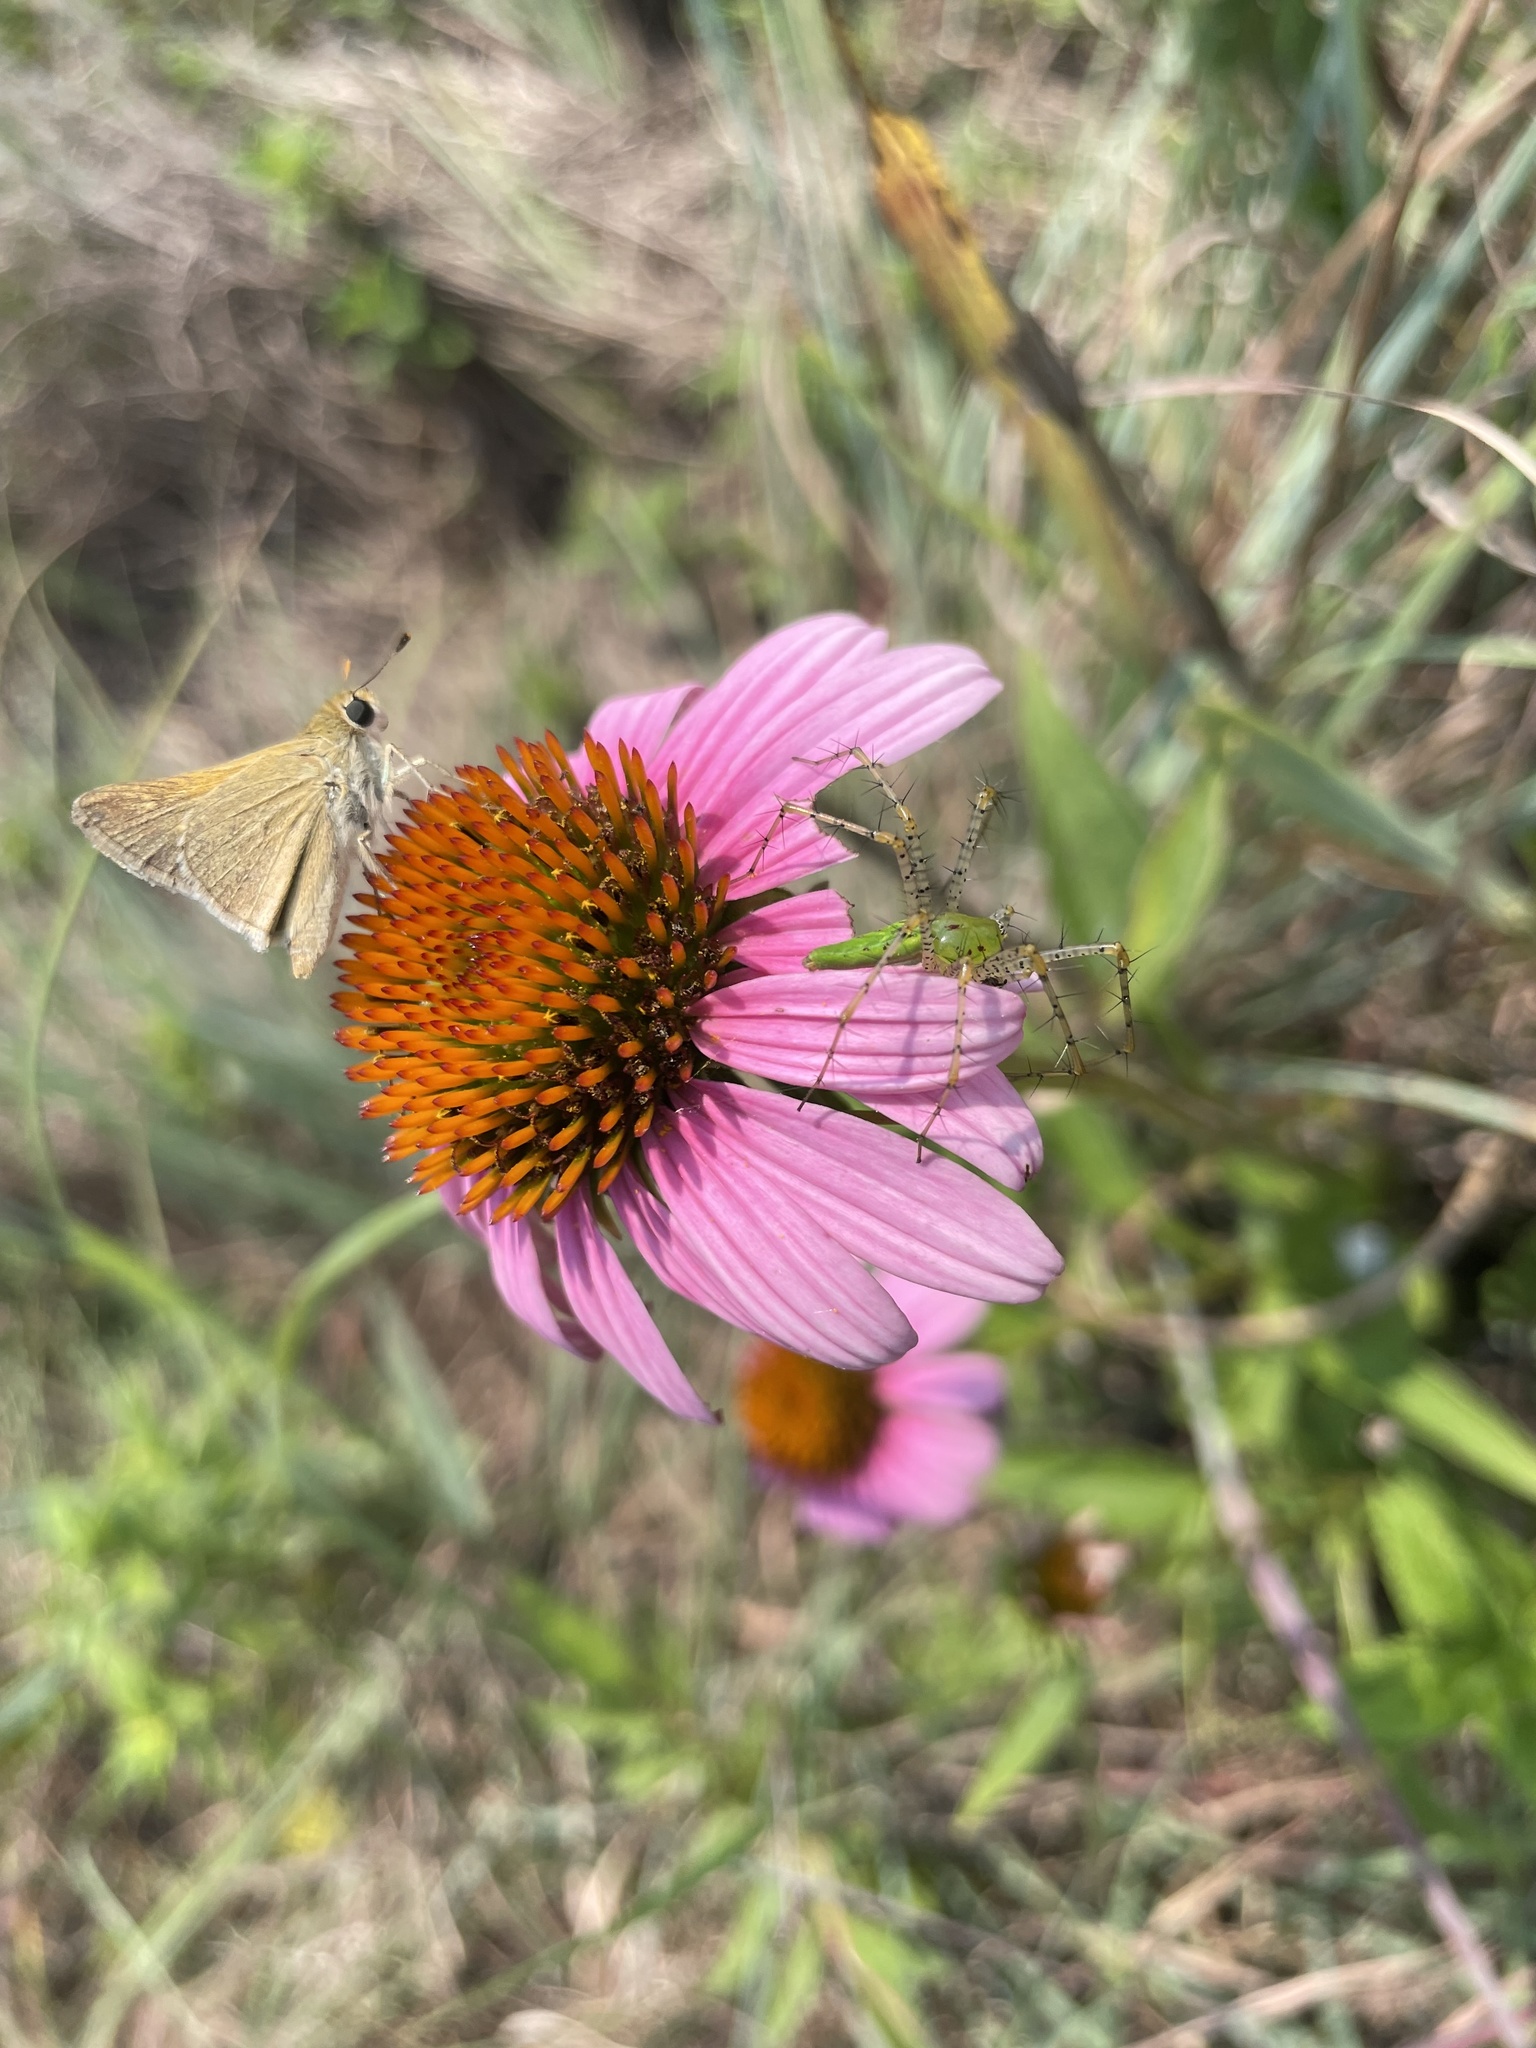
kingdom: Animalia
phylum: Arthropoda
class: Insecta
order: Lepidoptera
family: Hesperiidae
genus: Polites
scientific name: Polites themistocles
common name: Tawny-edged skipper
